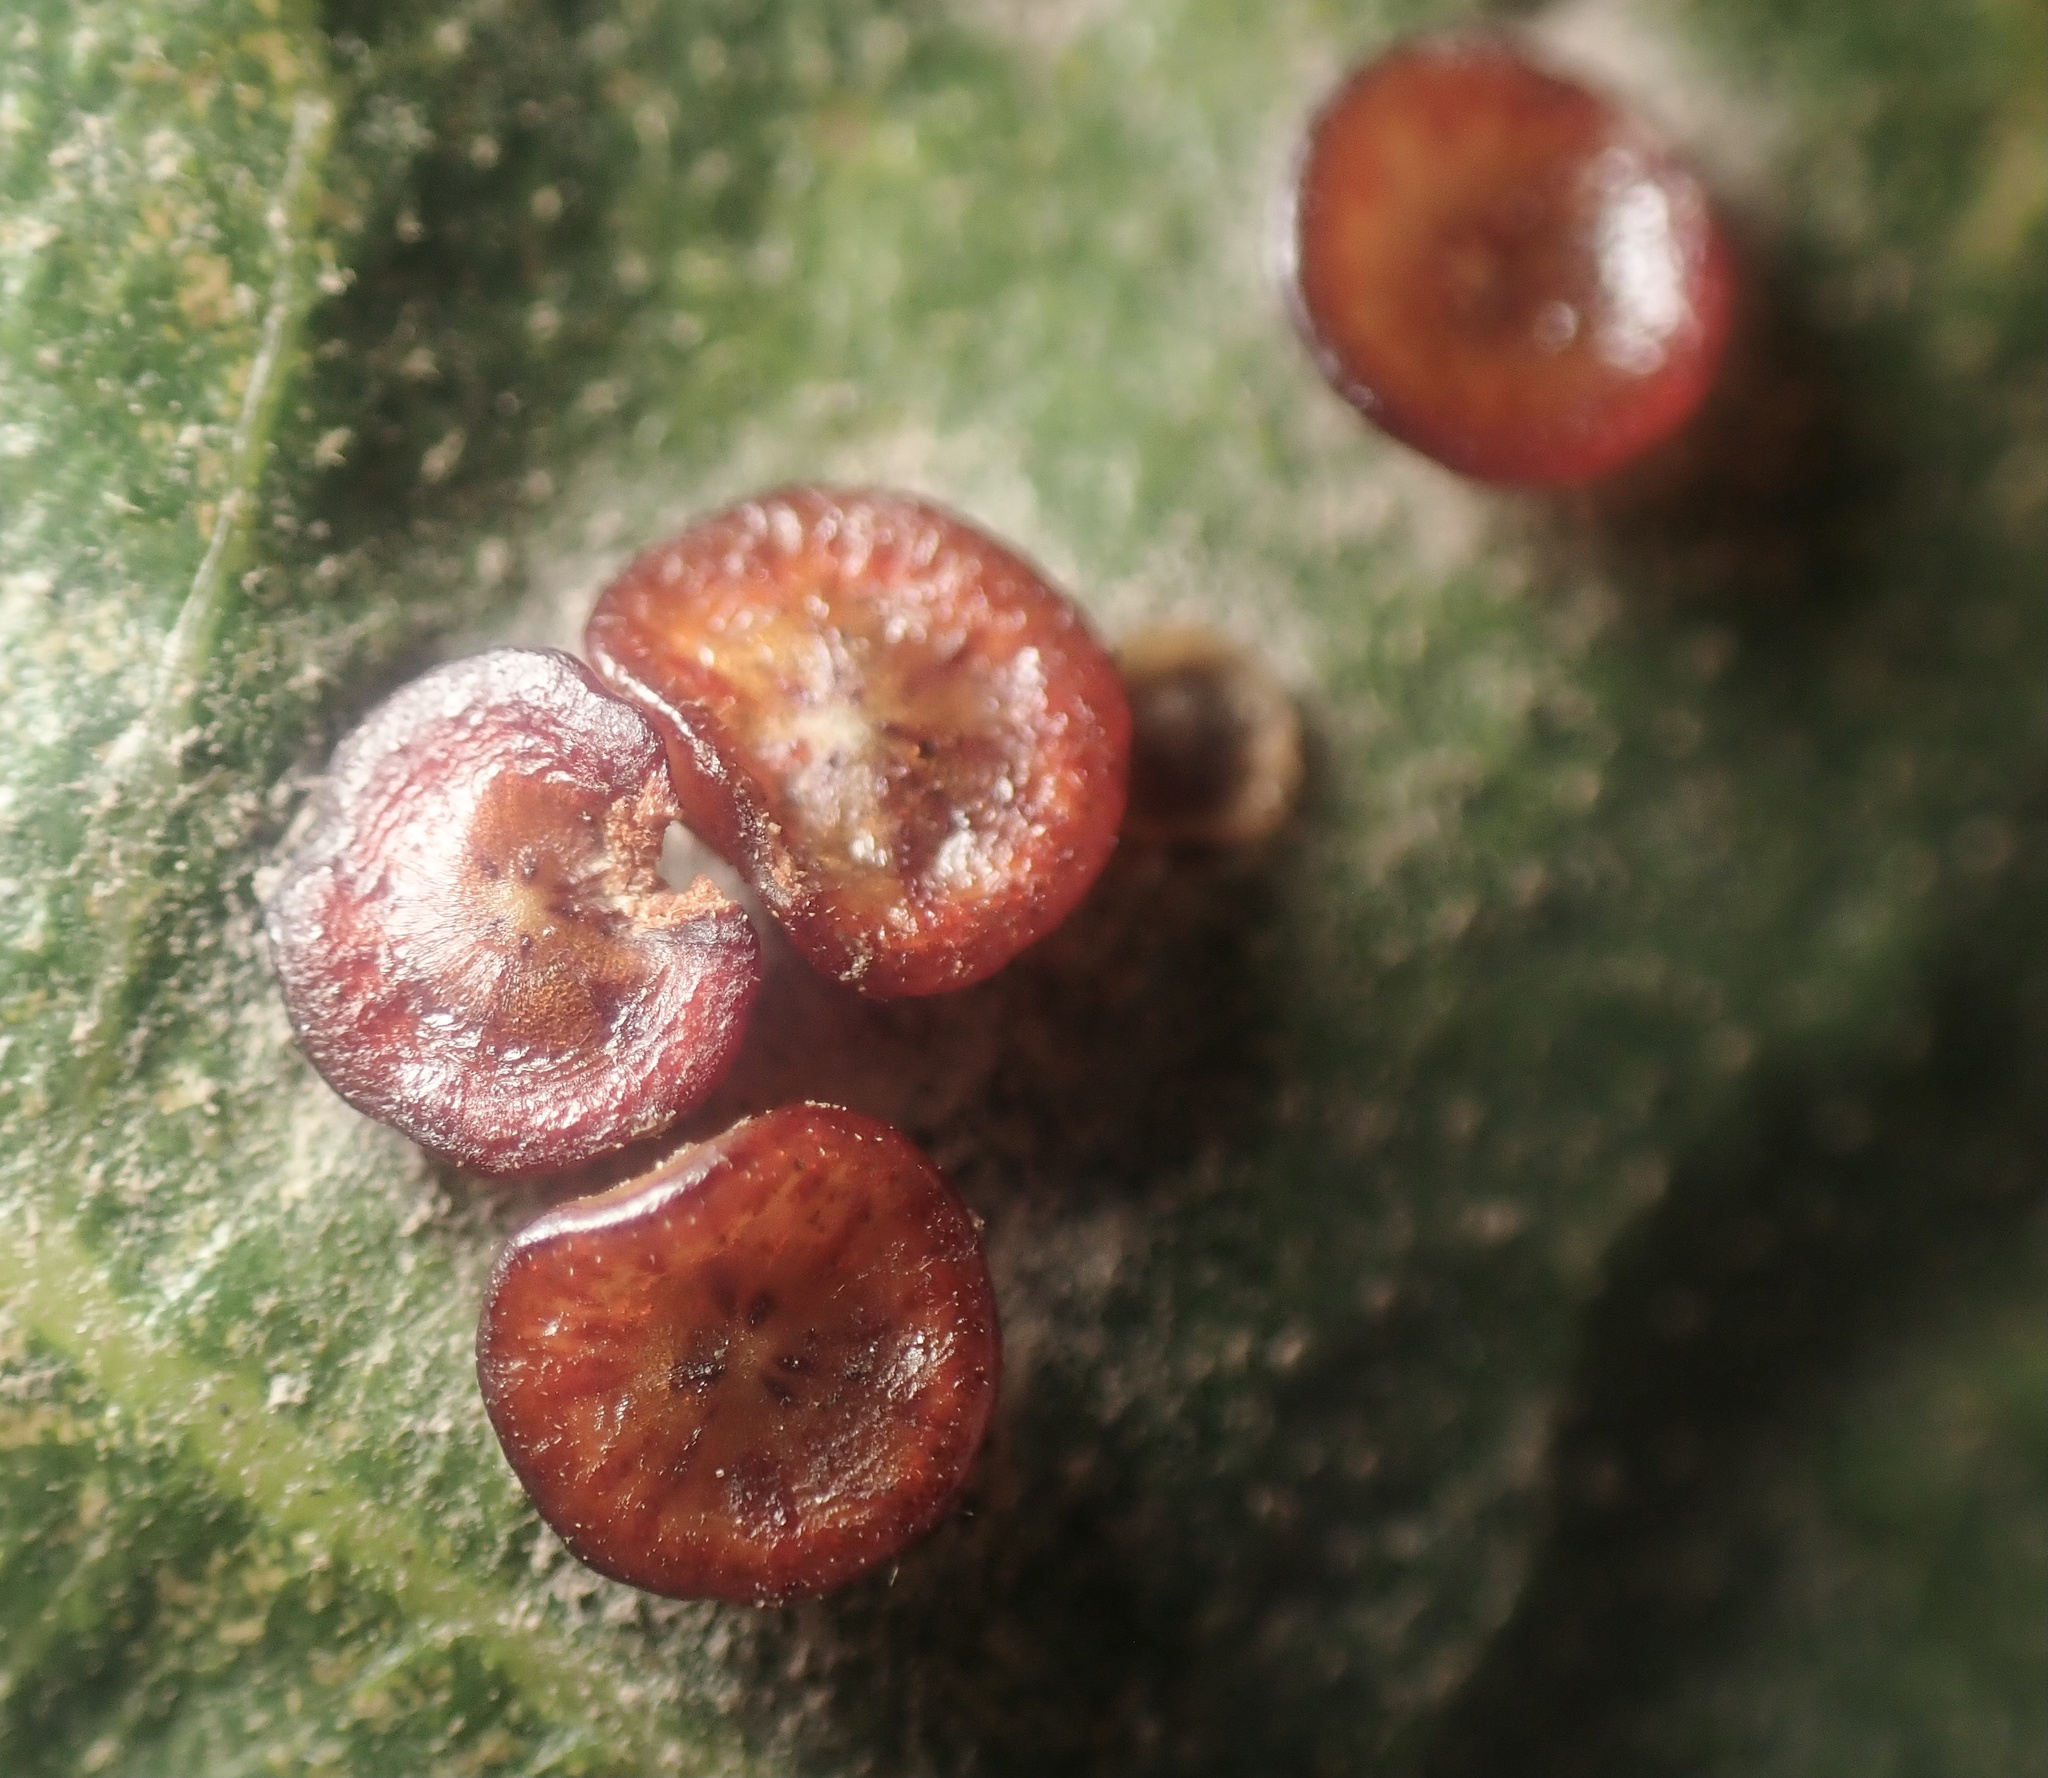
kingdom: Animalia
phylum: Arthropoda
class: Insecta
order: Hymenoptera
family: Cynipidae
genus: Andricus
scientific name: Andricus
